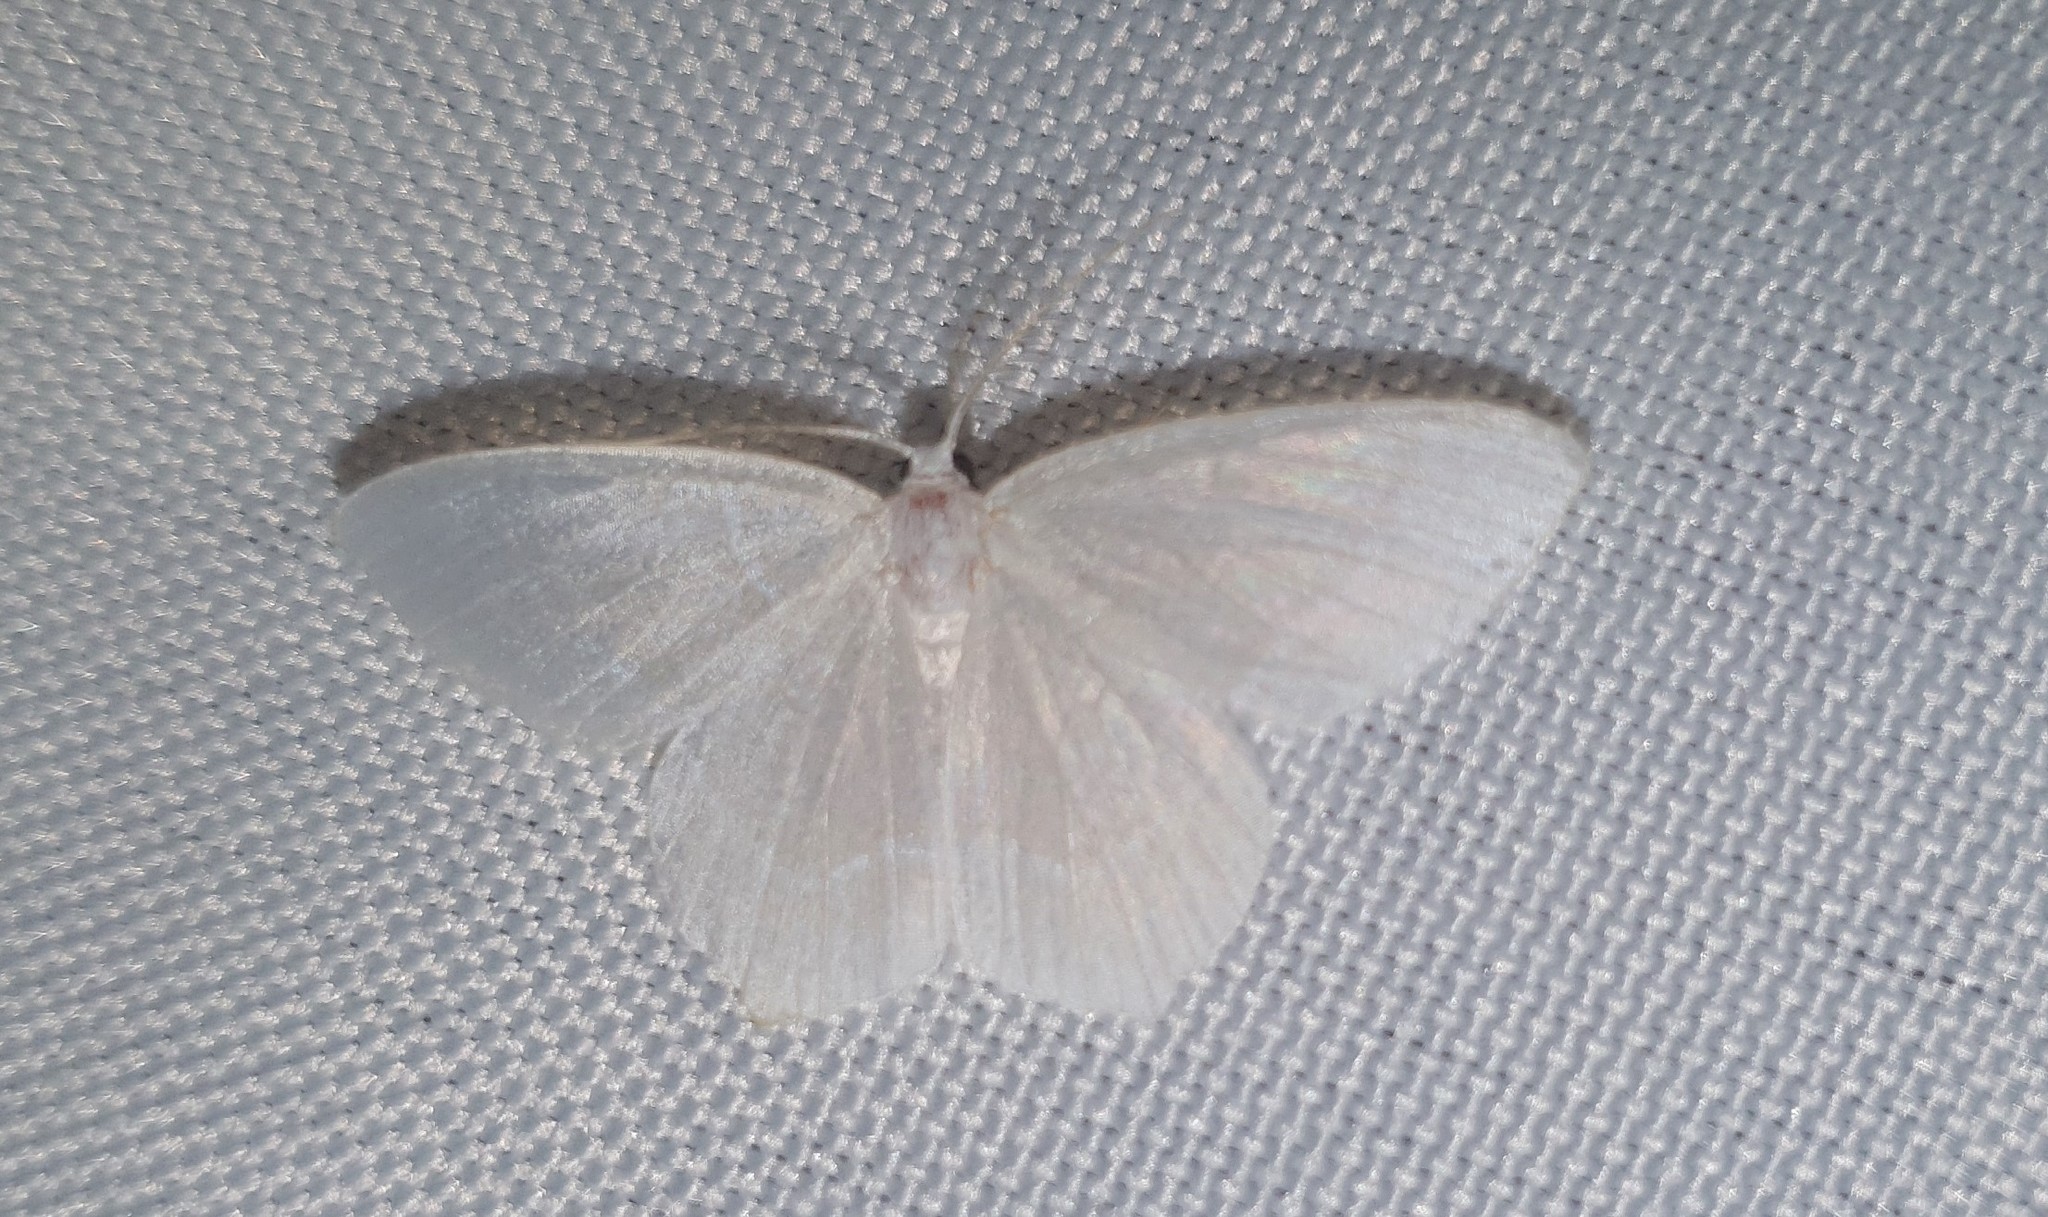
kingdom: Animalia
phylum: Arthropoda
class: Insecta
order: Lepidoptera
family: Geometridae
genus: Jodis
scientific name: Jodis lactearia
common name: Little emerald
